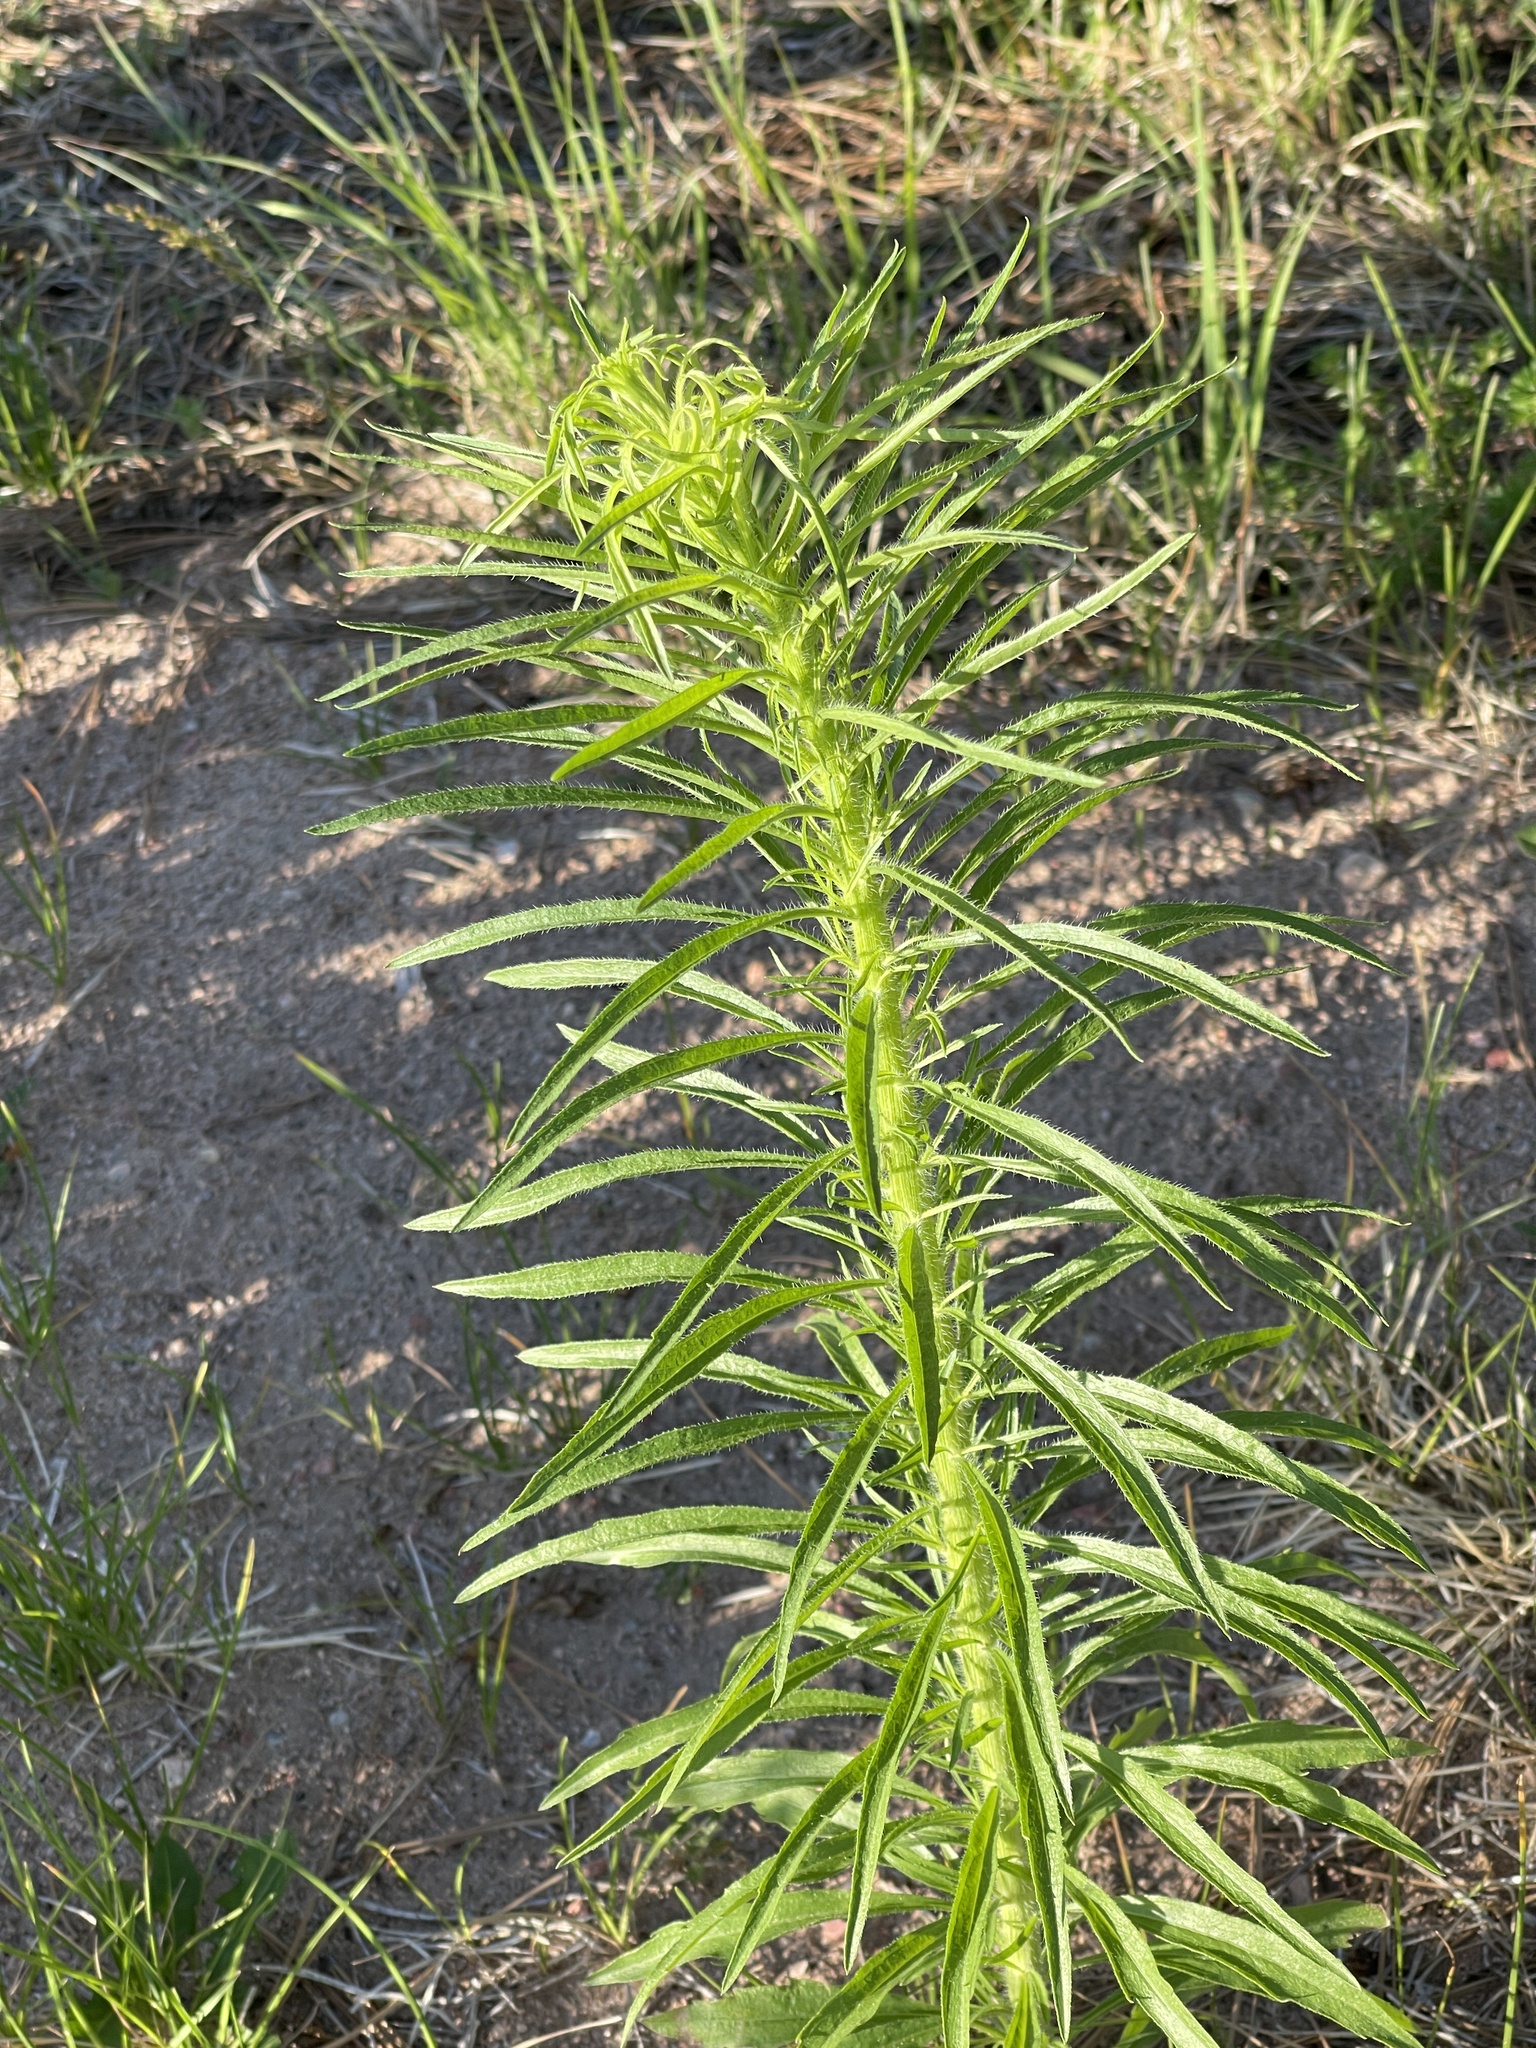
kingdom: Plantae
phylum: Tracheophyta
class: Magnoliopsida
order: Asterales
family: Asteraceae
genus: Erigeron
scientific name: Erigeron canadensis
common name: Canadian fleabane
